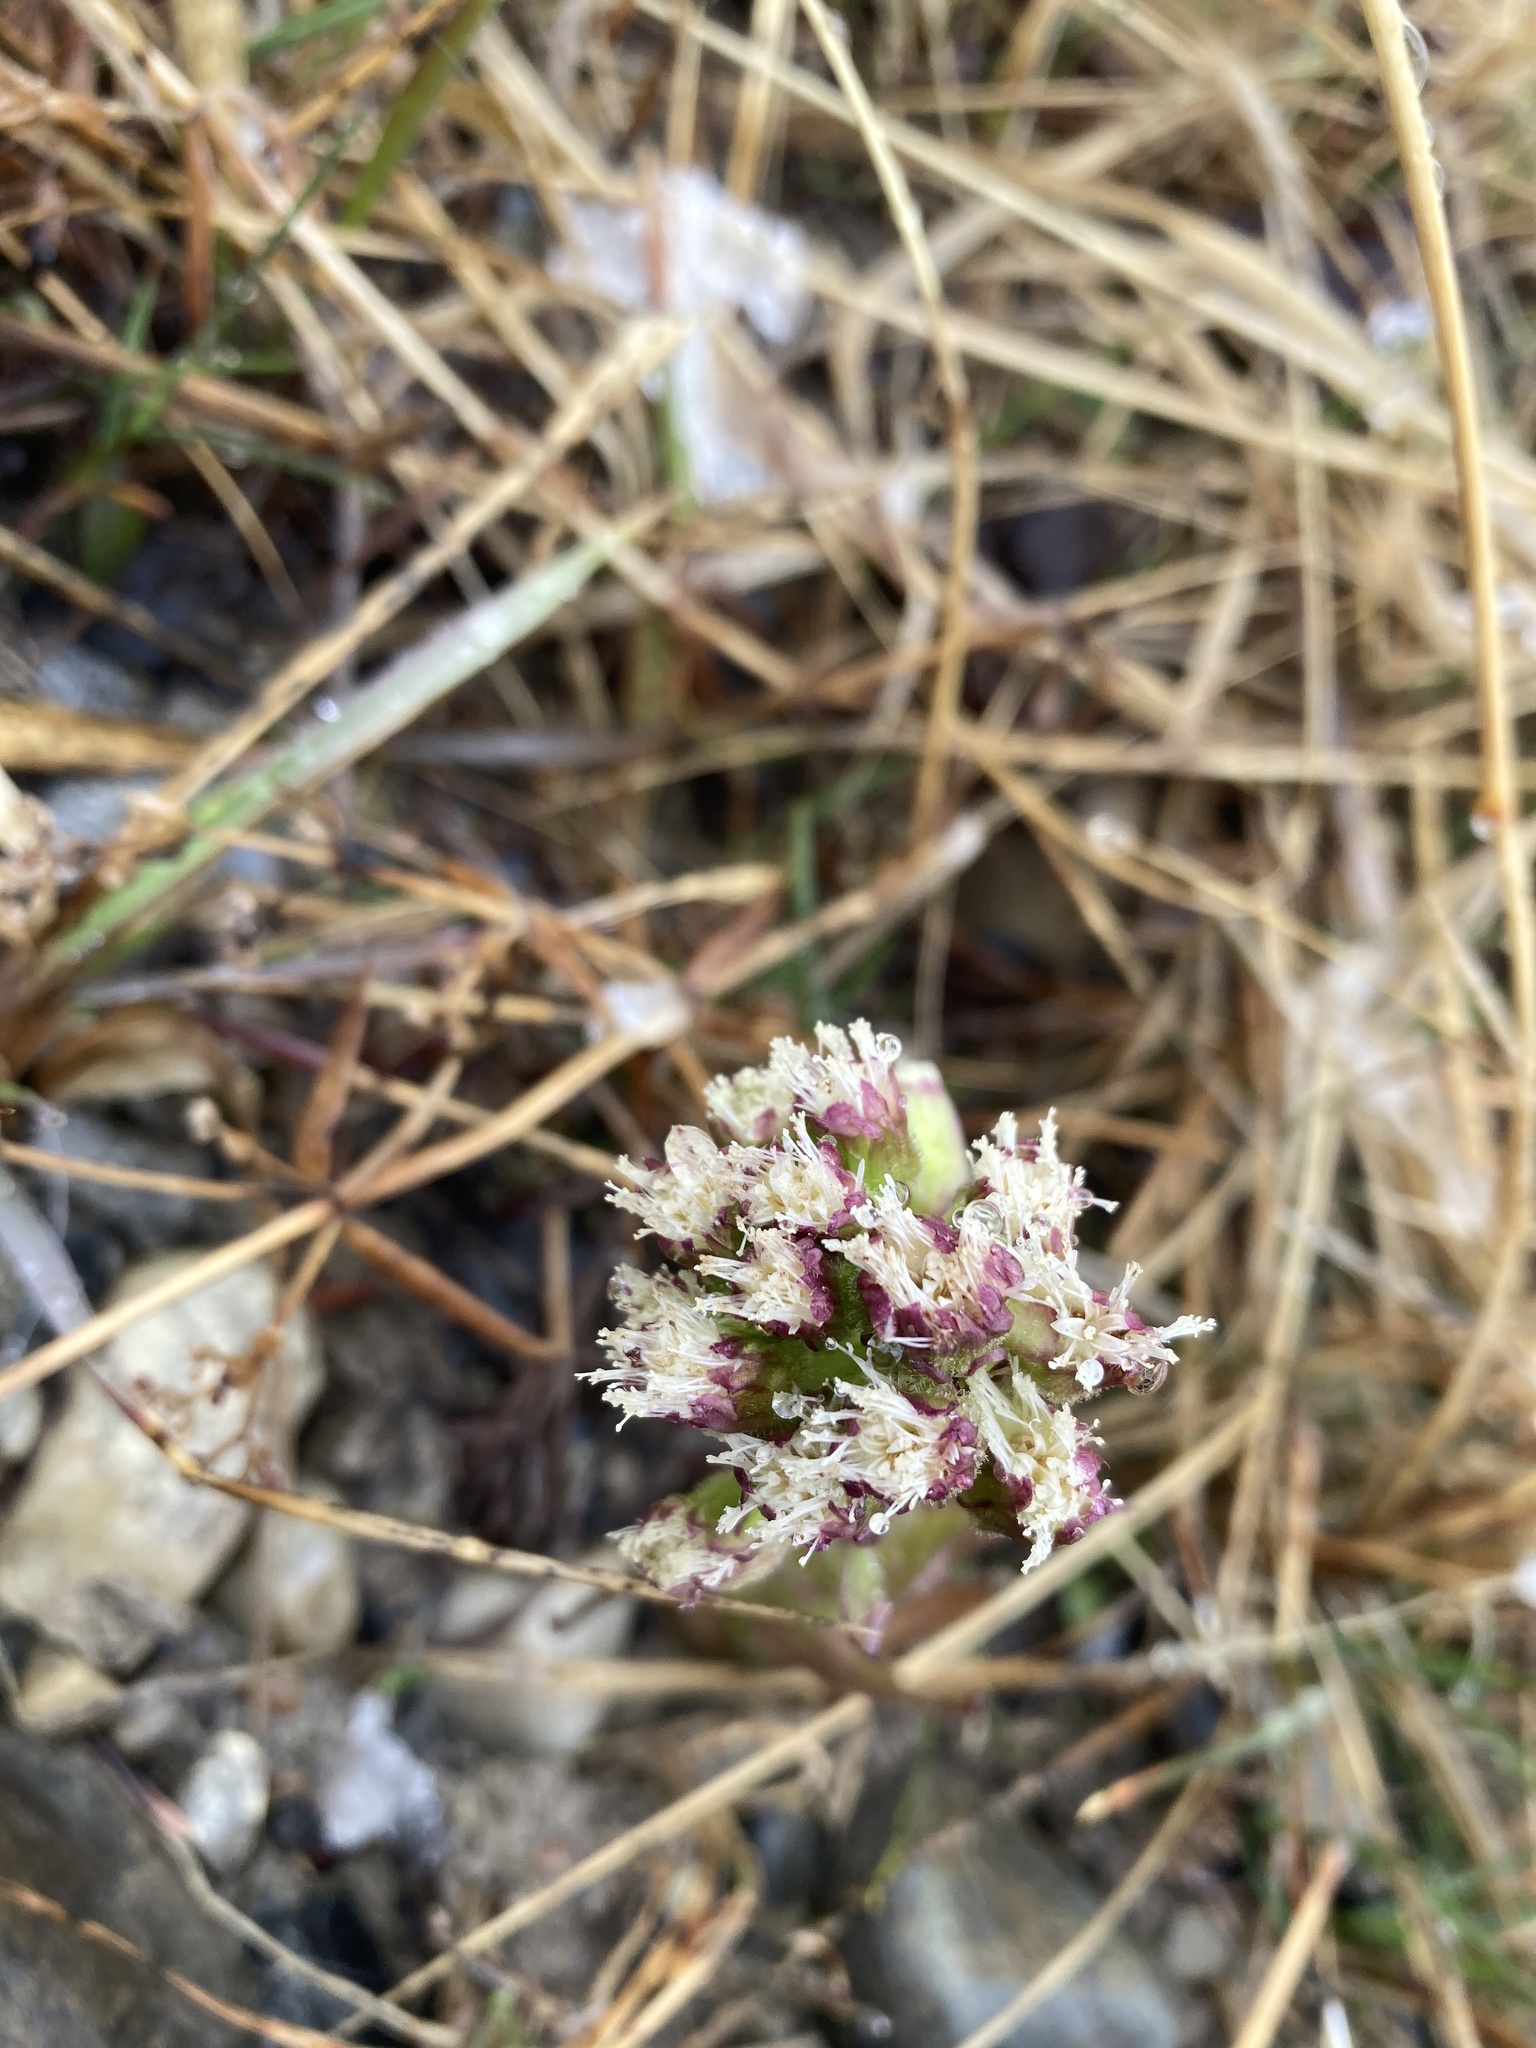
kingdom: Plantae
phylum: Tracheophyta
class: Magnoliopsida
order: Asterales
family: Asteraceae
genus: Petasites
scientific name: Petasites frigidus
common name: Arctic butterbur
